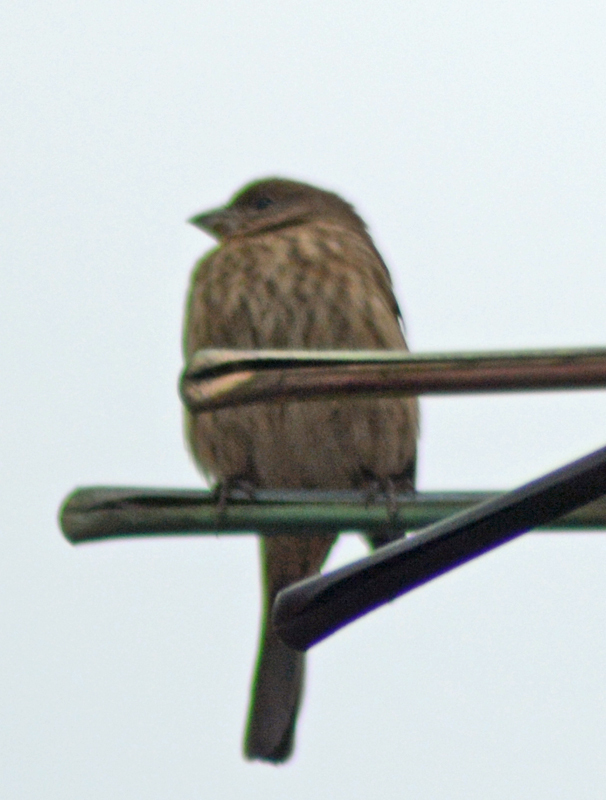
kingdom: Animalia
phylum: Chordata
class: Aves
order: Passeriformes
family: Fringillidae
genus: Haemorhous
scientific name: Haemorhous mexicanus
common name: House finch
